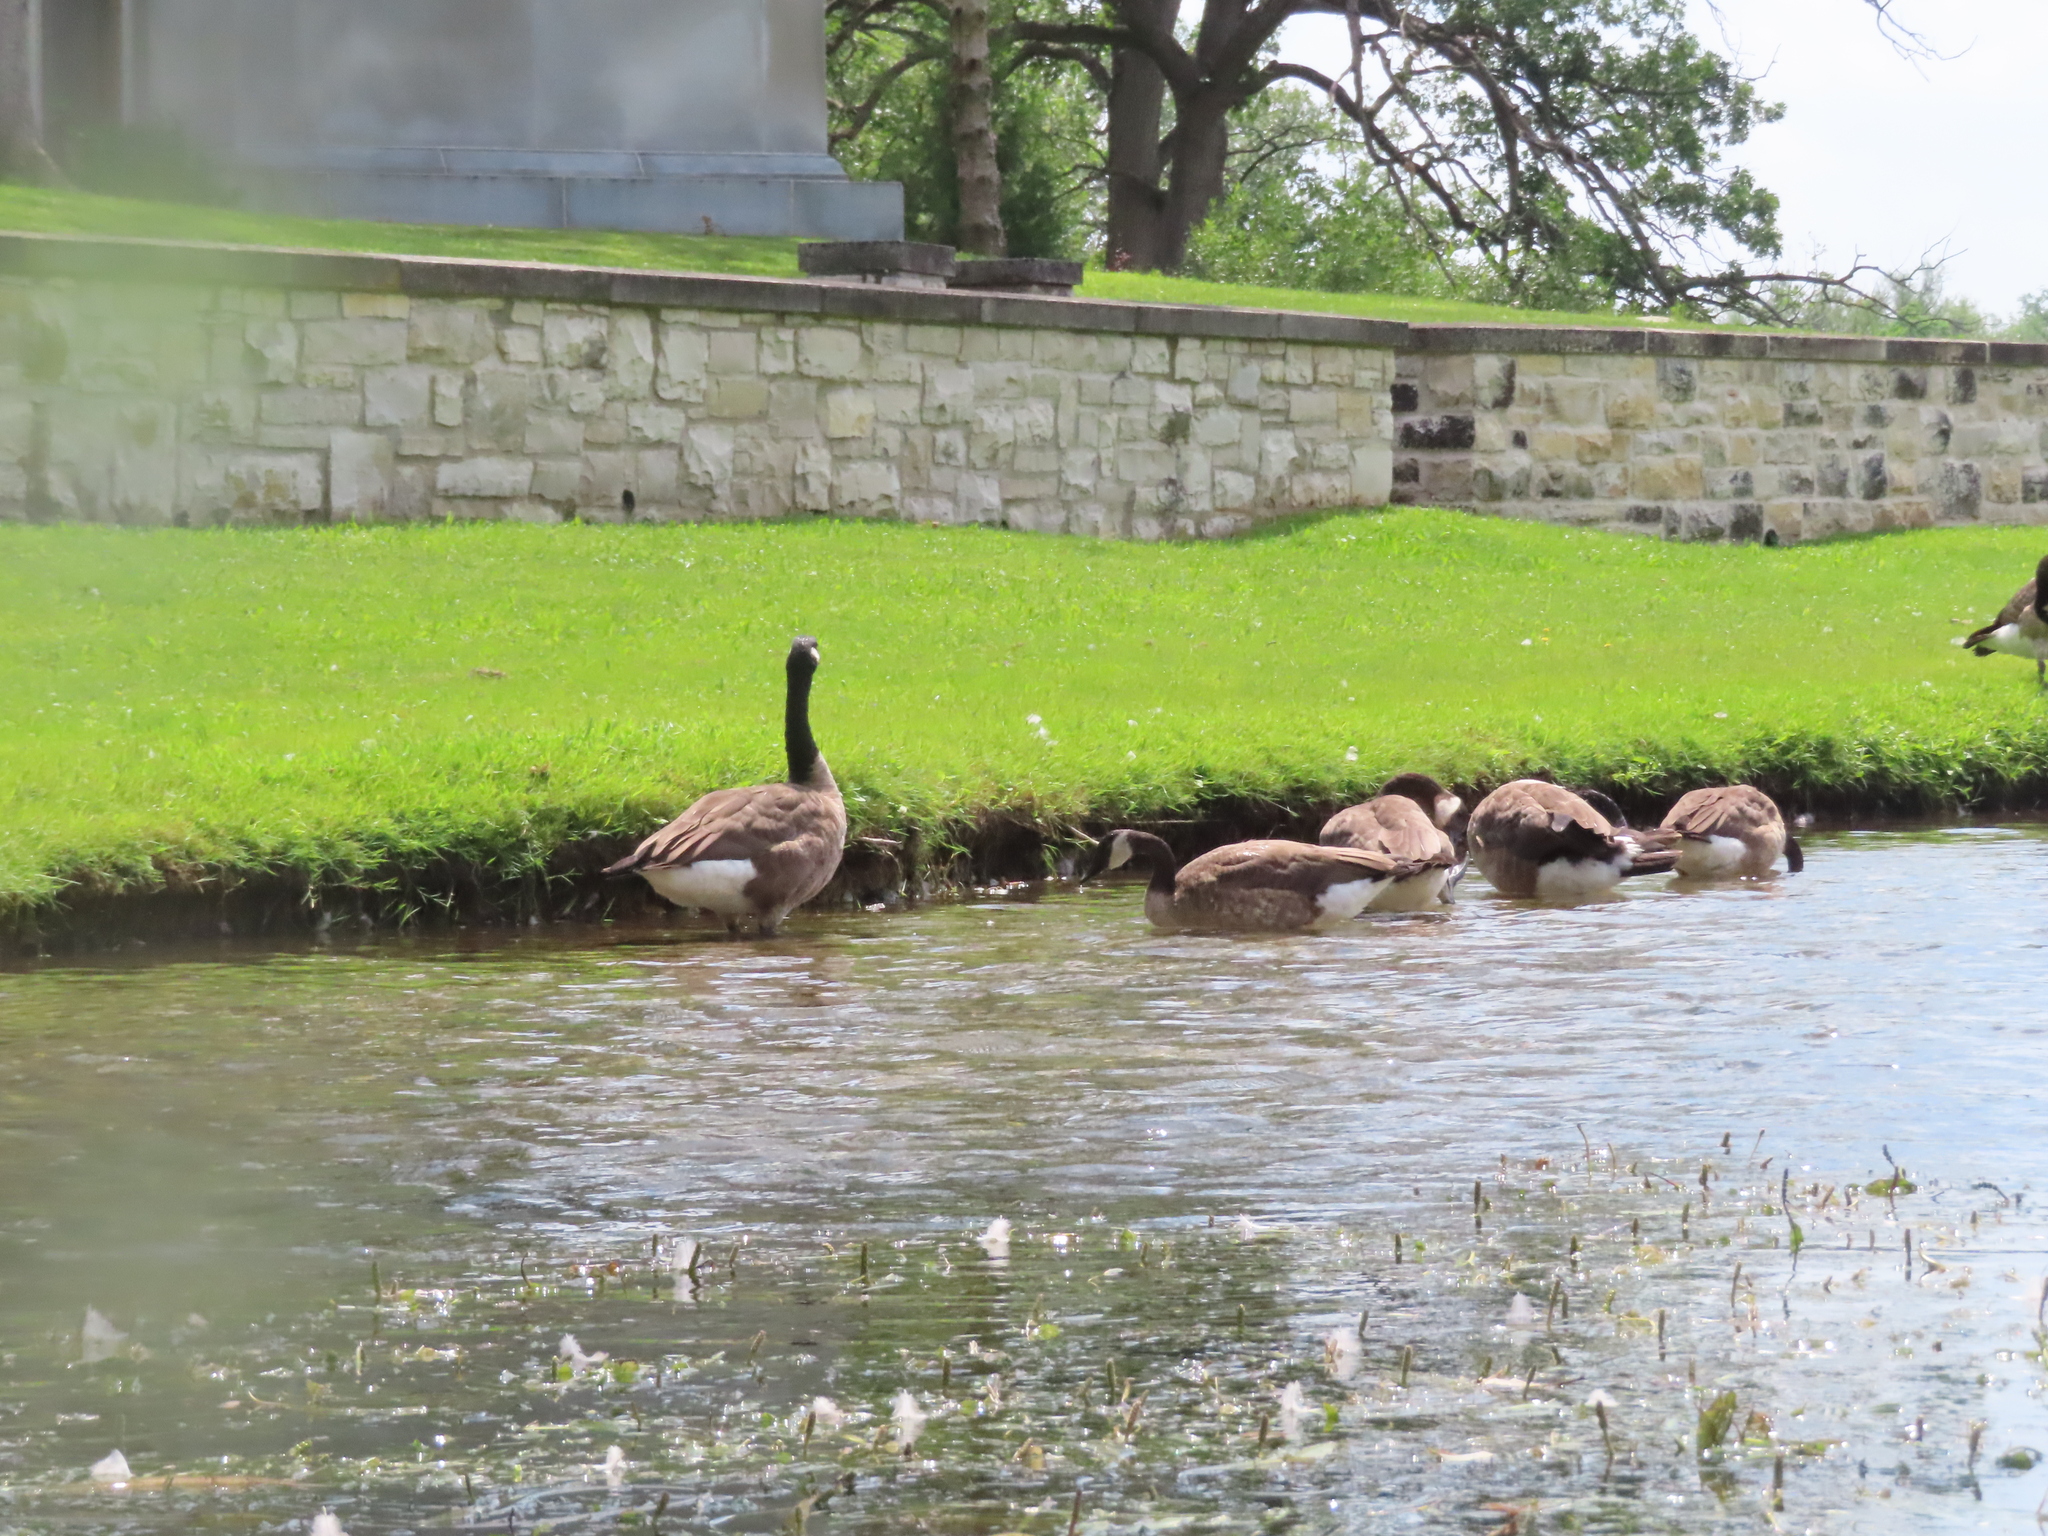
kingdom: Animalia
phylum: Chordata
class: Aves
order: Anseriformes
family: Anatidae
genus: Branta
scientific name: Branta canadensis
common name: Canada goose
